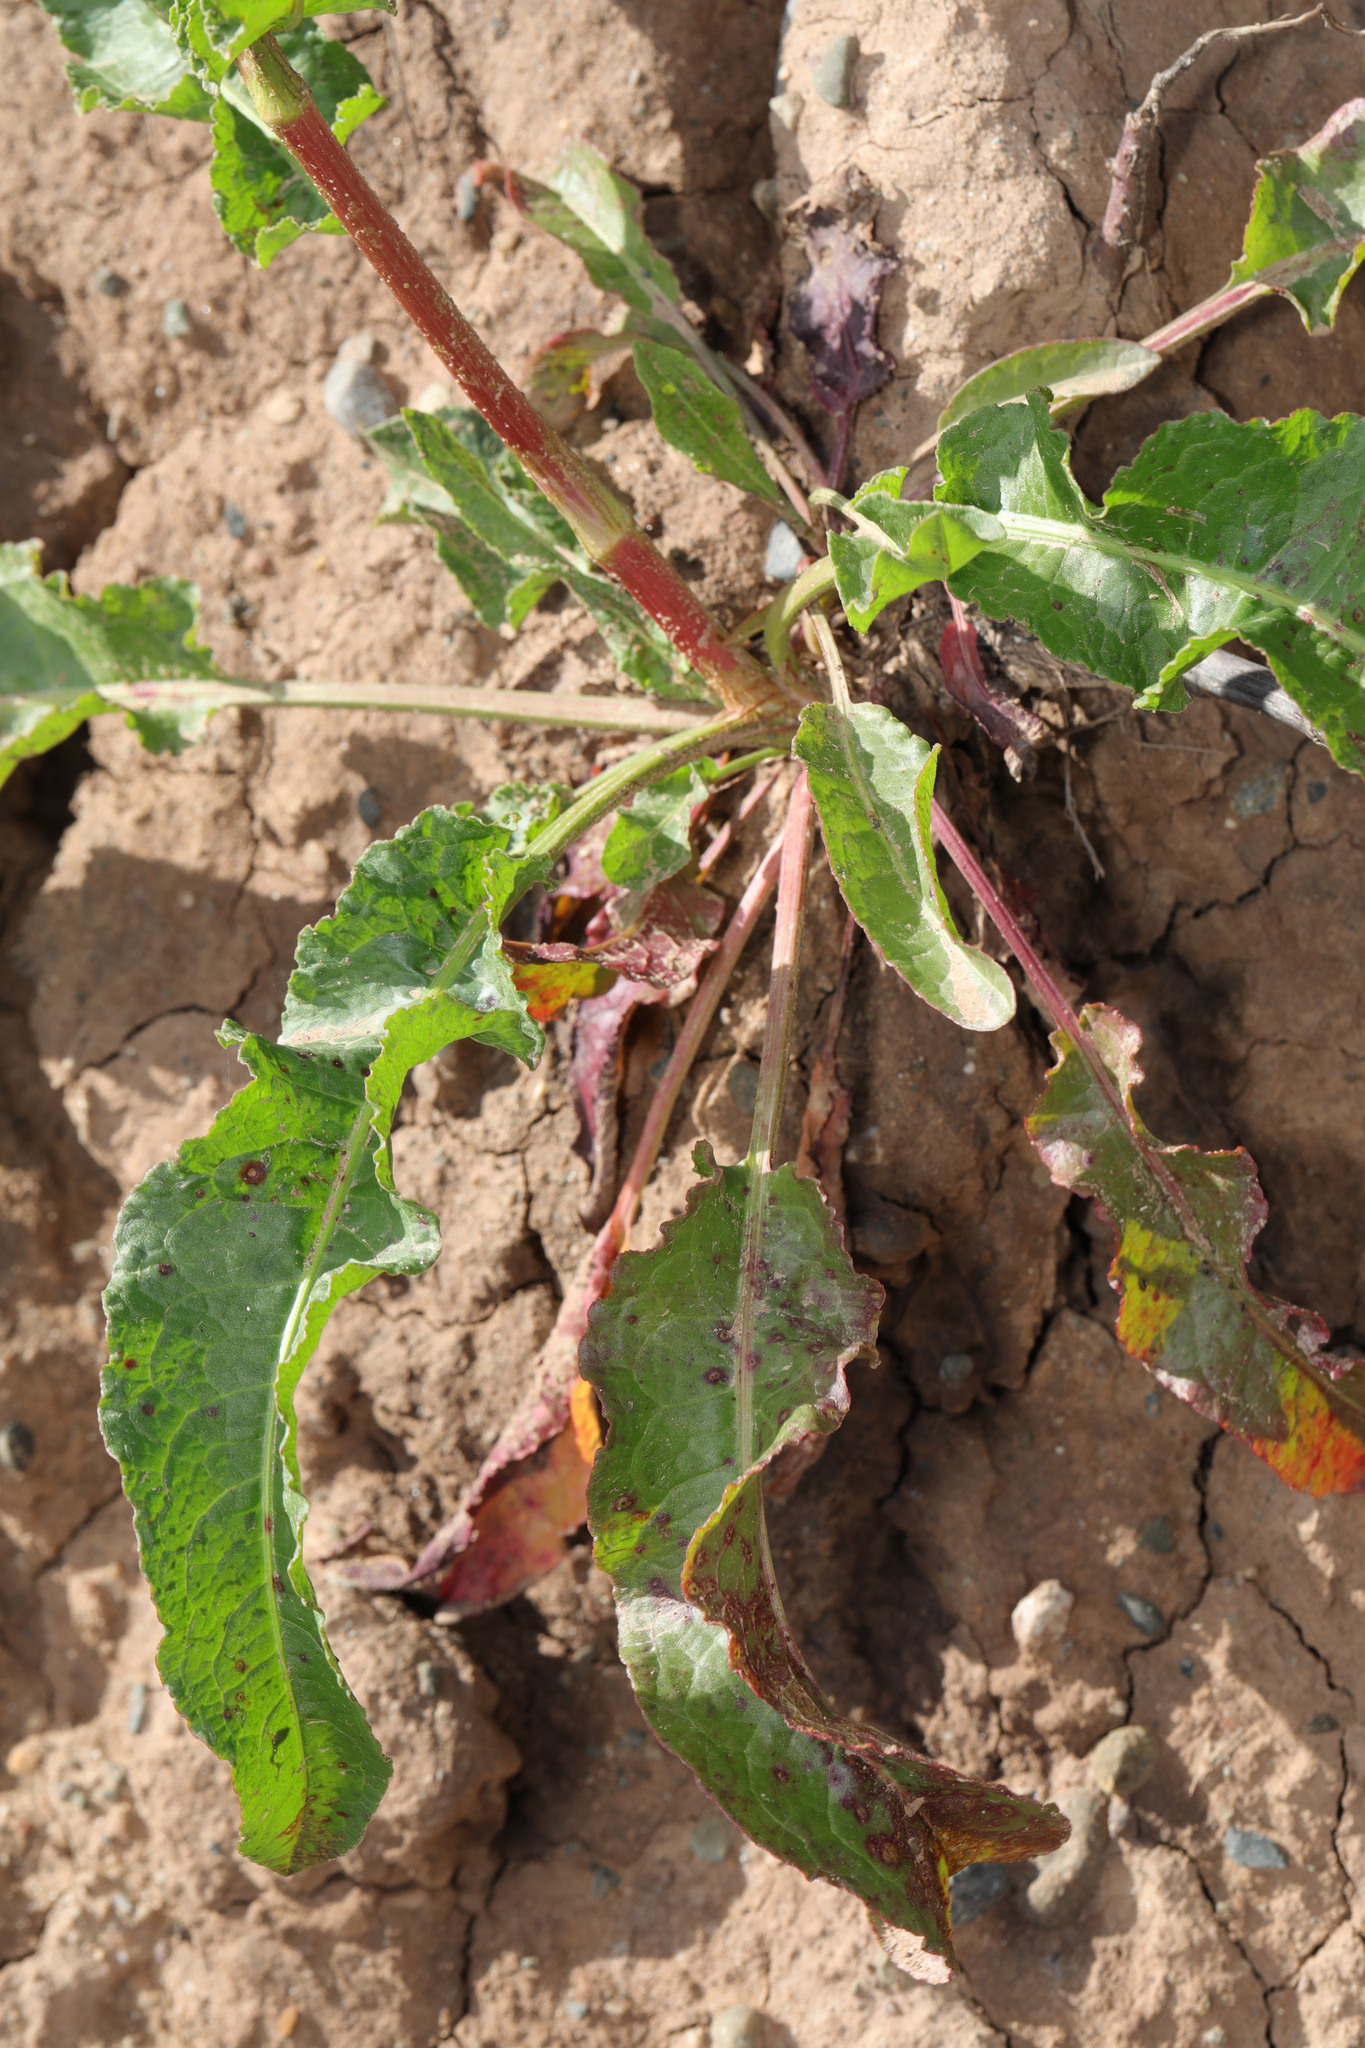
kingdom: Plantae
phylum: Tracheophyta
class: Magnoliopsida
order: Caryophyllales
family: Polygonaceae
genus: Rumex
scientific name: Rumex crispus
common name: Curled dock
